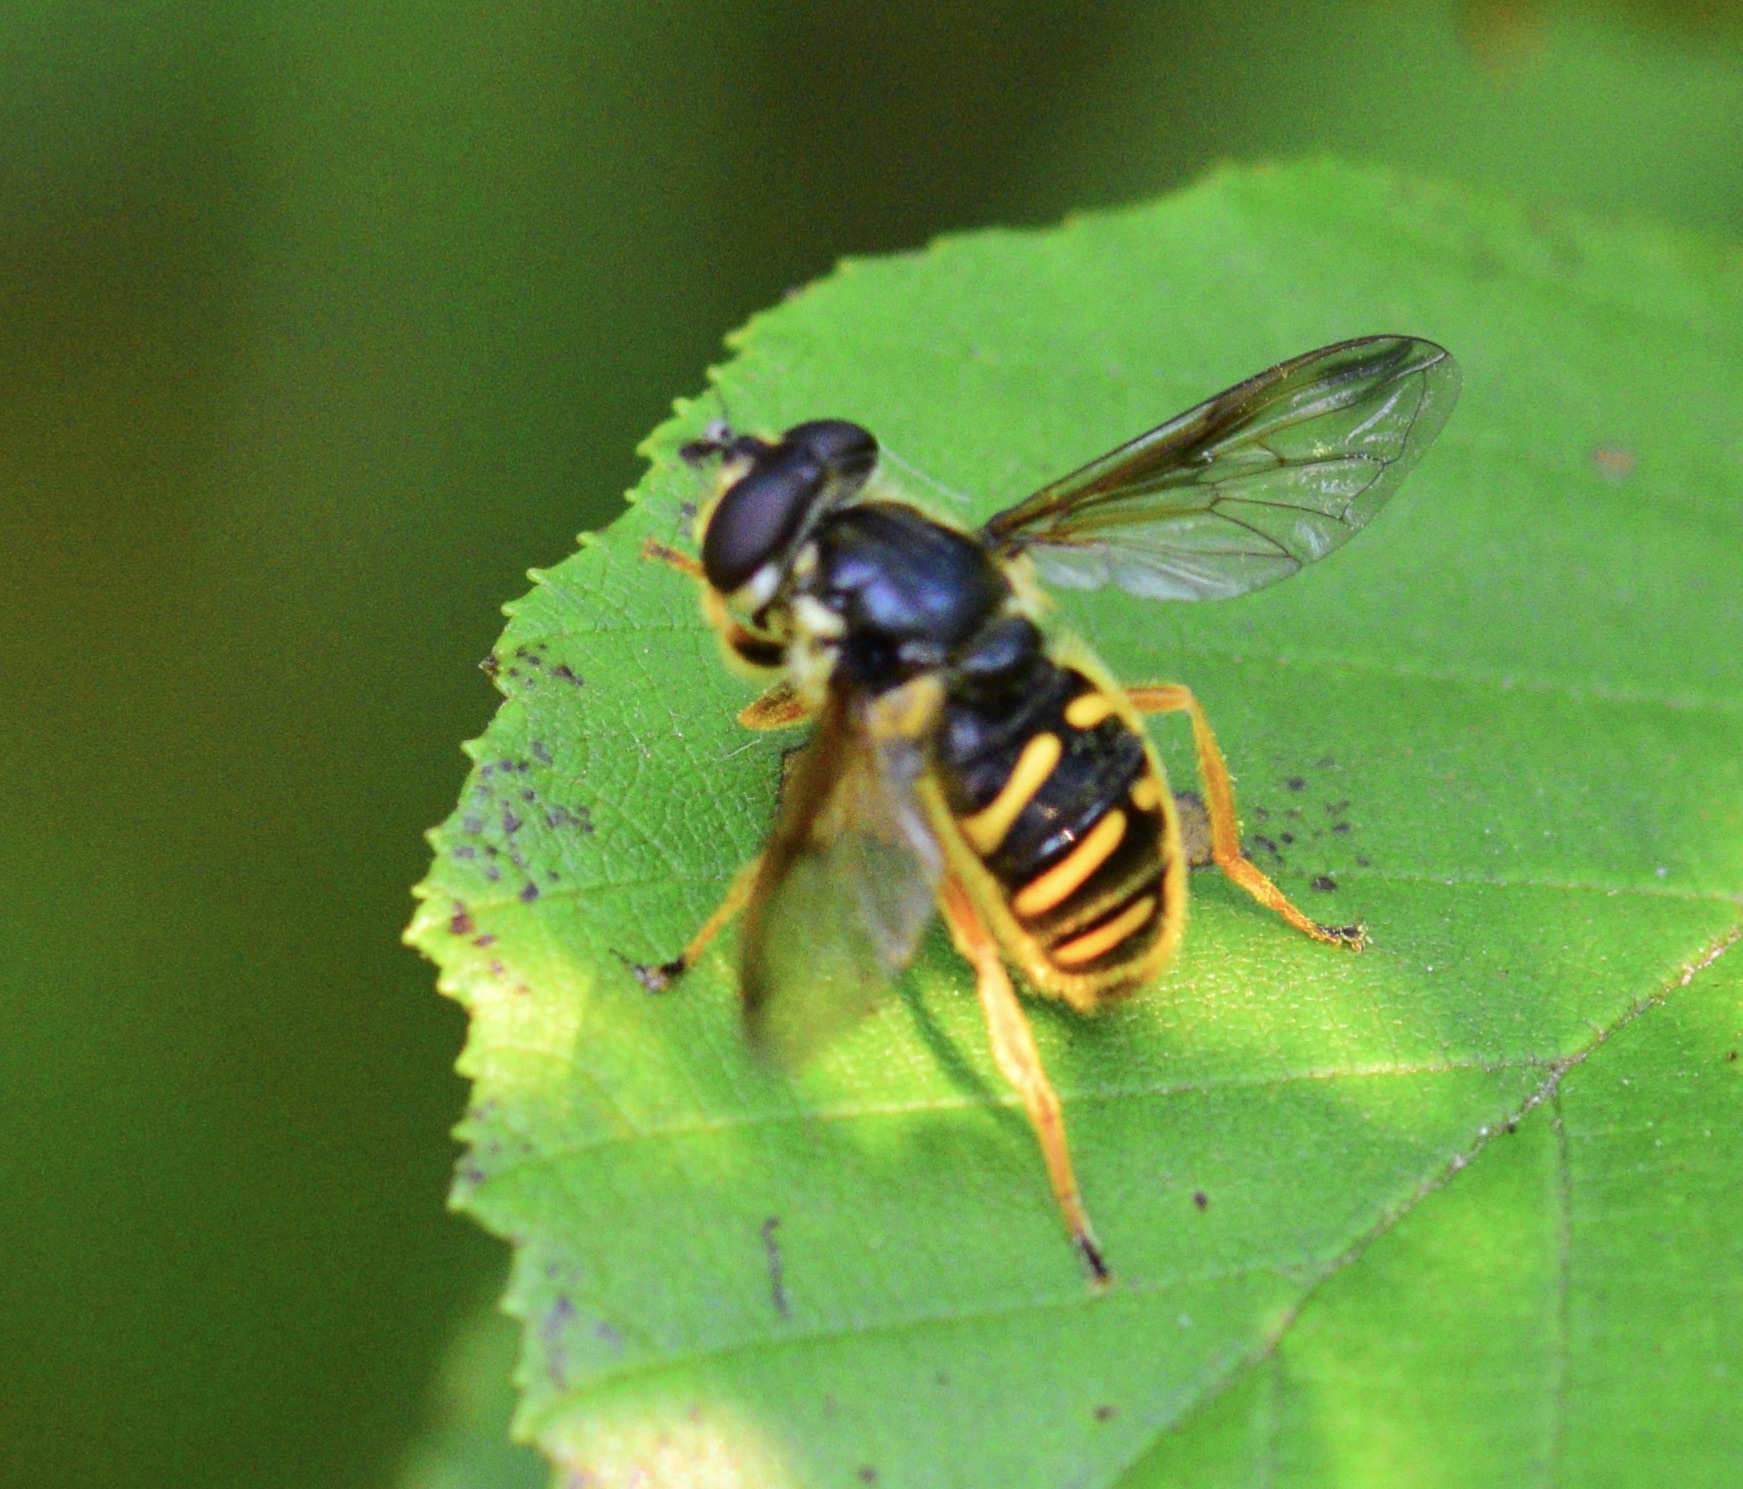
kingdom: Animalia
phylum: Arthropoda
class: Insecta
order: Diptera
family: Syrphidae
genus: Sericomyia
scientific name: Sericomyia chrysotoxoides
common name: Oblique-banded pond fly
